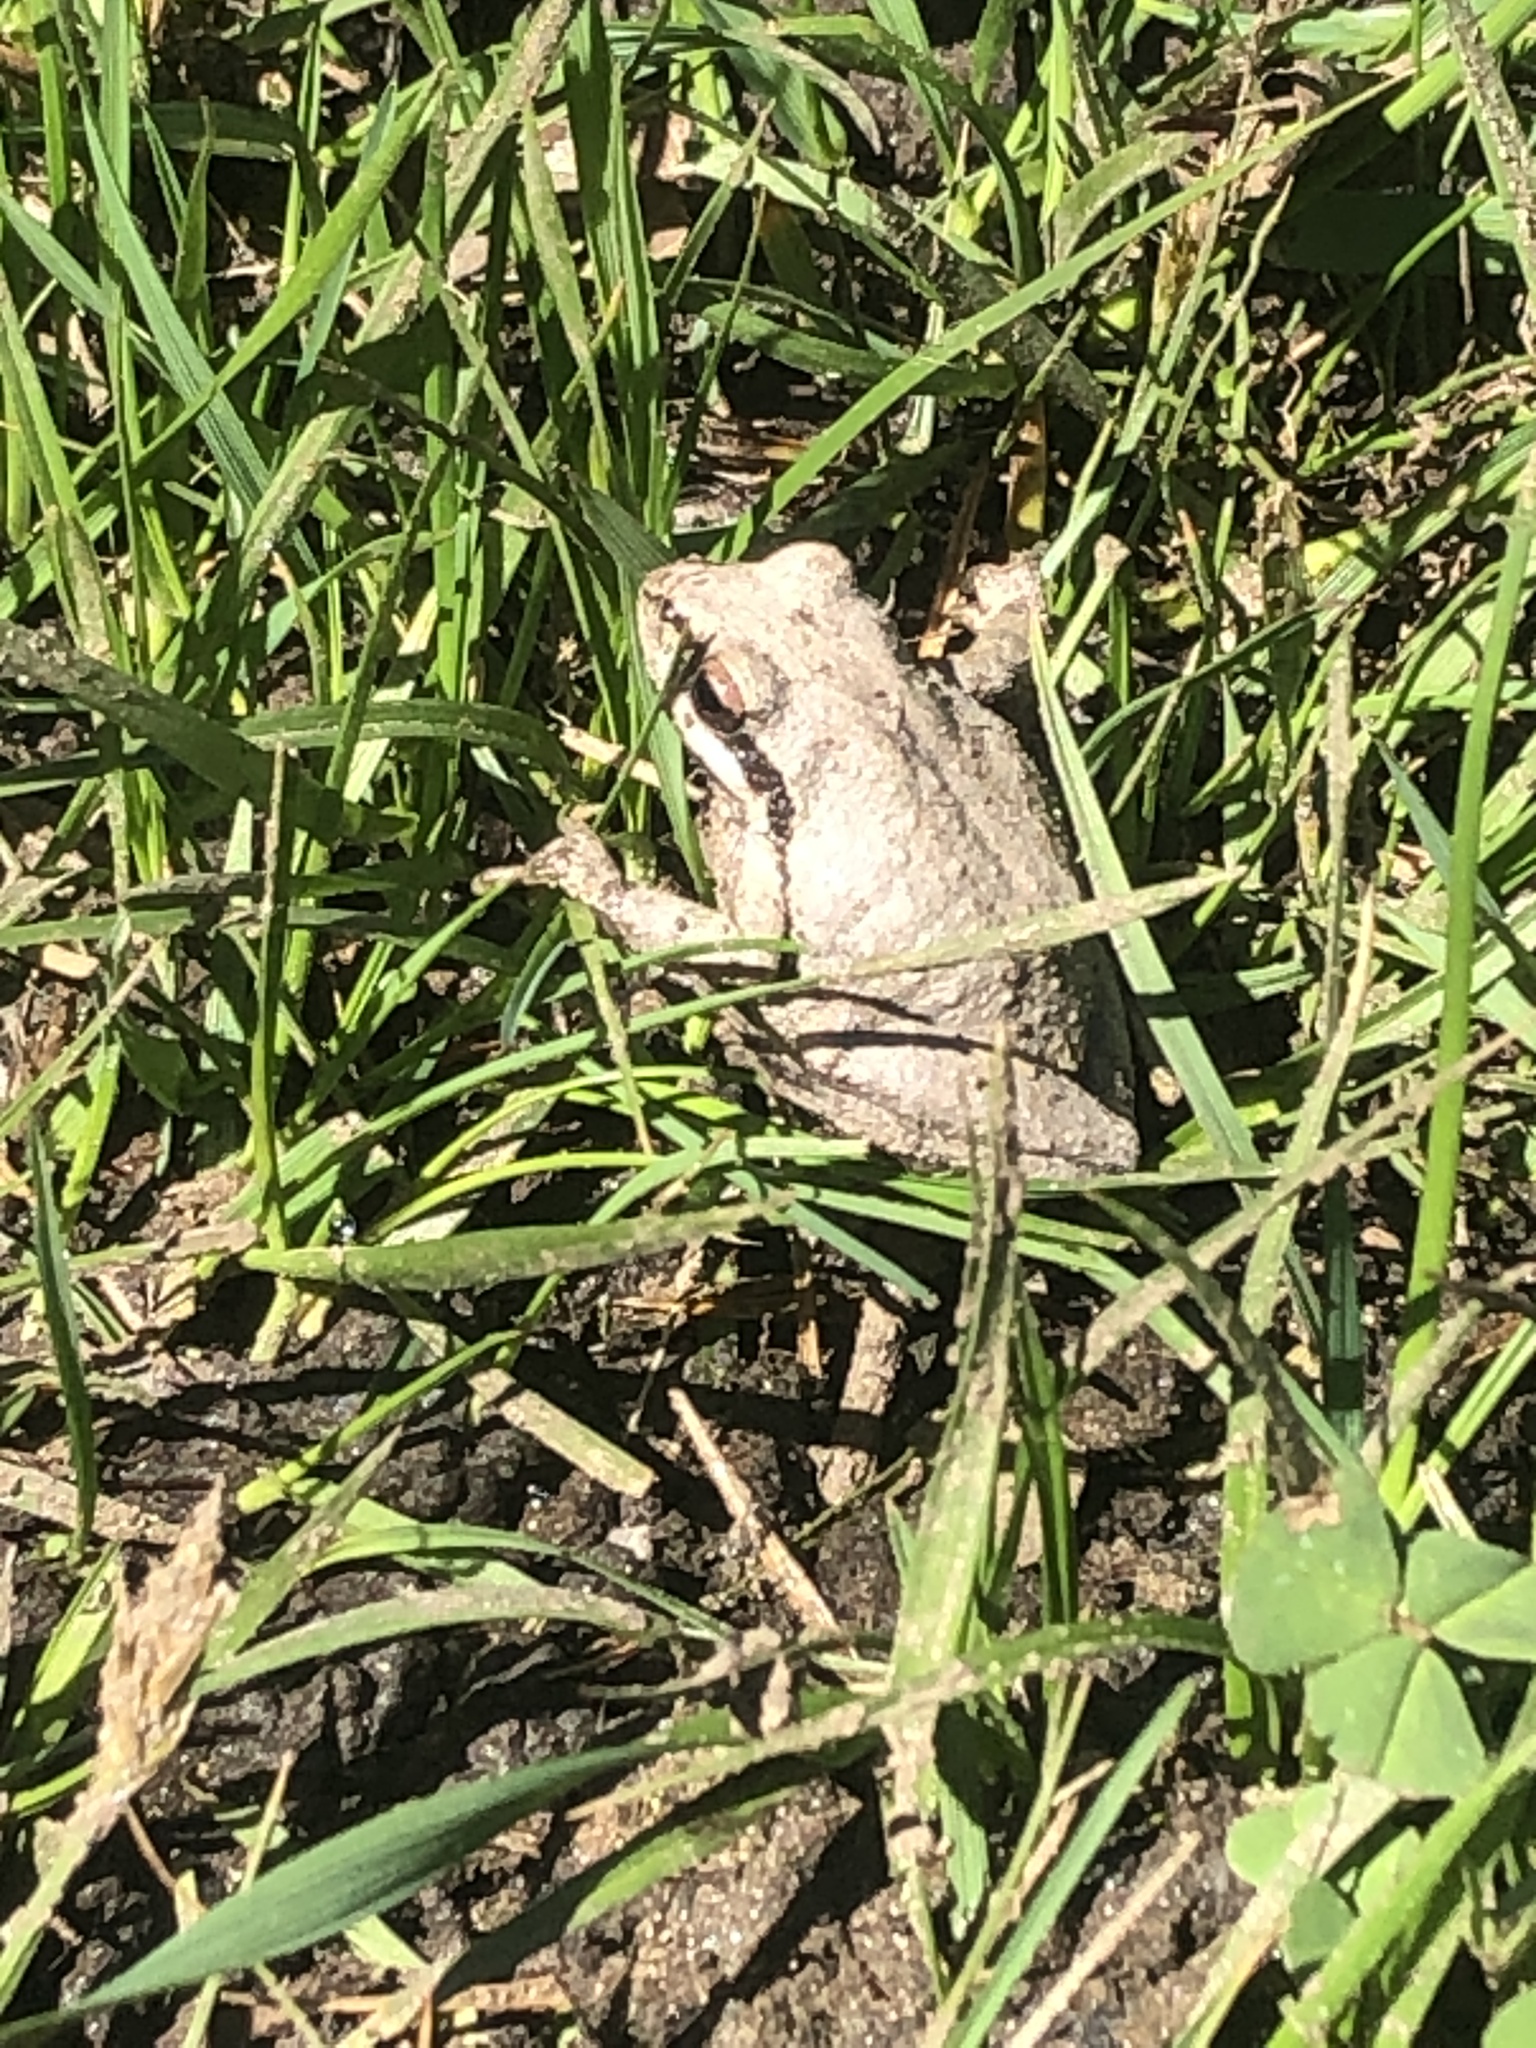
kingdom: Animalia
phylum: Chordata
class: Amphibia
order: Anura
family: Hylidae
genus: Pseudacris
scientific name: Pseudacris regilla
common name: Pacific chorus frog
